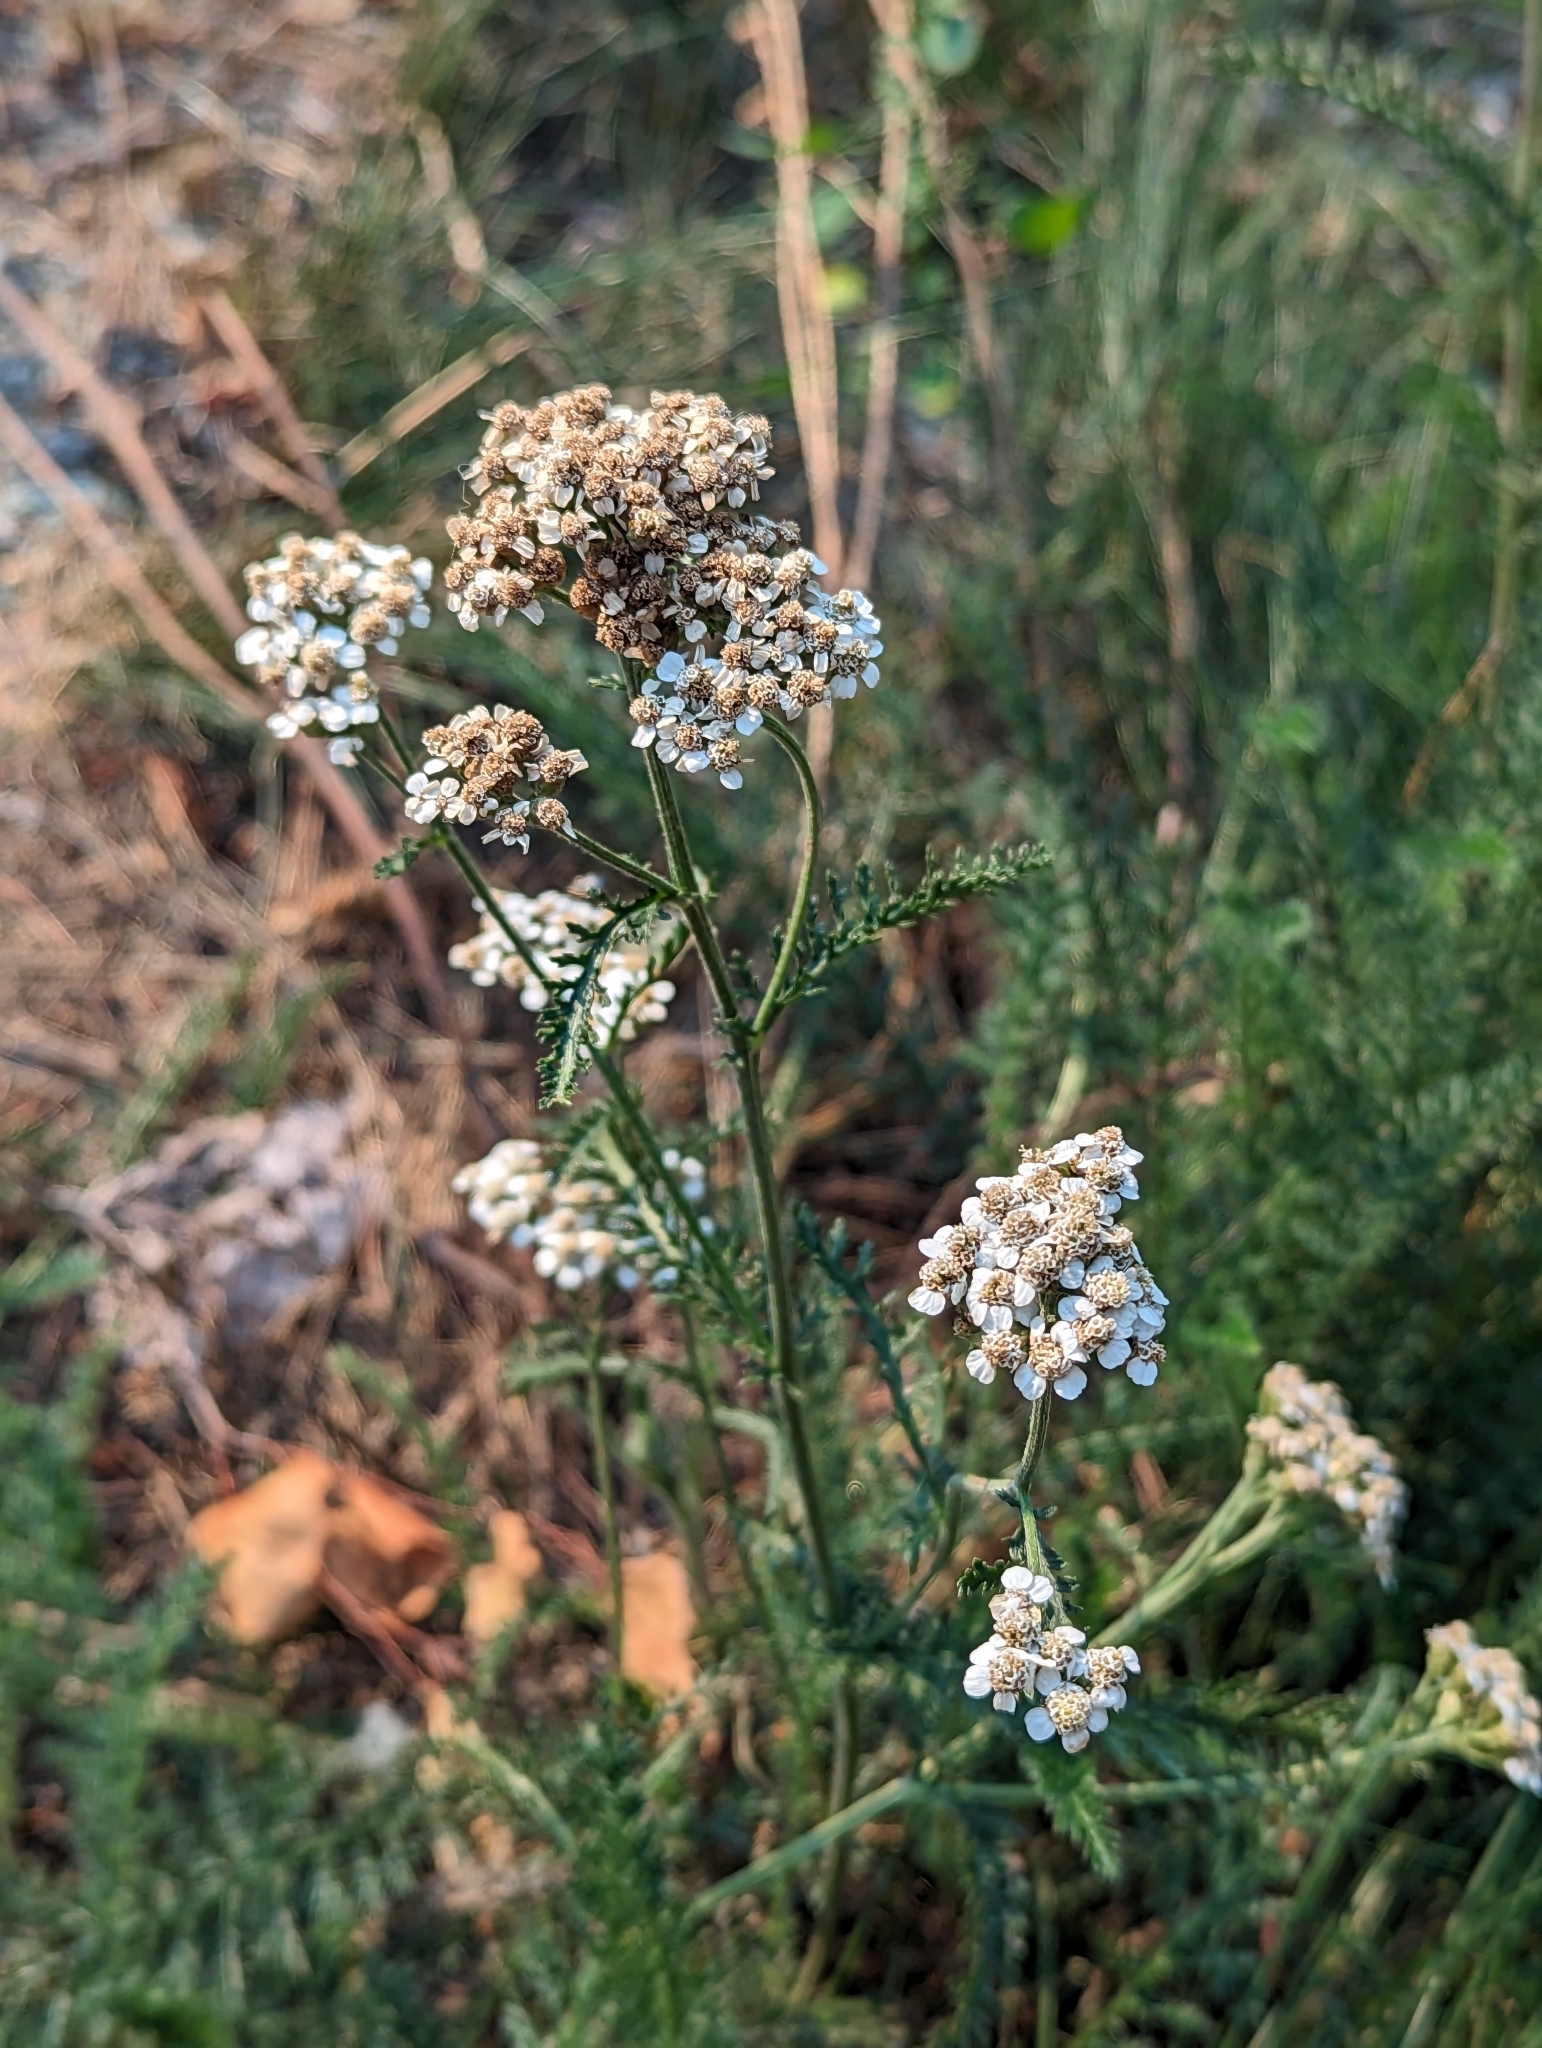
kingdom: Plantae
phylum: Tracheophyta
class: Magnoliopsida
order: Asterales
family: Asteraceae
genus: Achillea
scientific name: Achillea millefolium
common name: Yarrow
